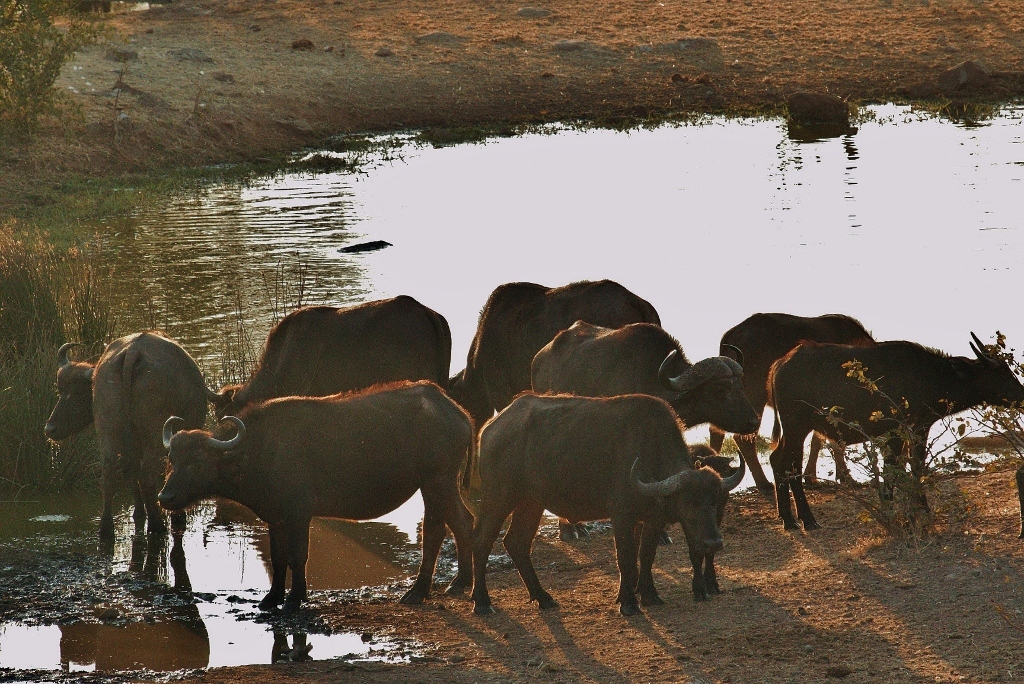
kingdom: Animalia
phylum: Chordata
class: Mammalia
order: Artiodactyla
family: Bovidae
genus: Syncerus
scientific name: Syncerus caffer
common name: African buffalo
